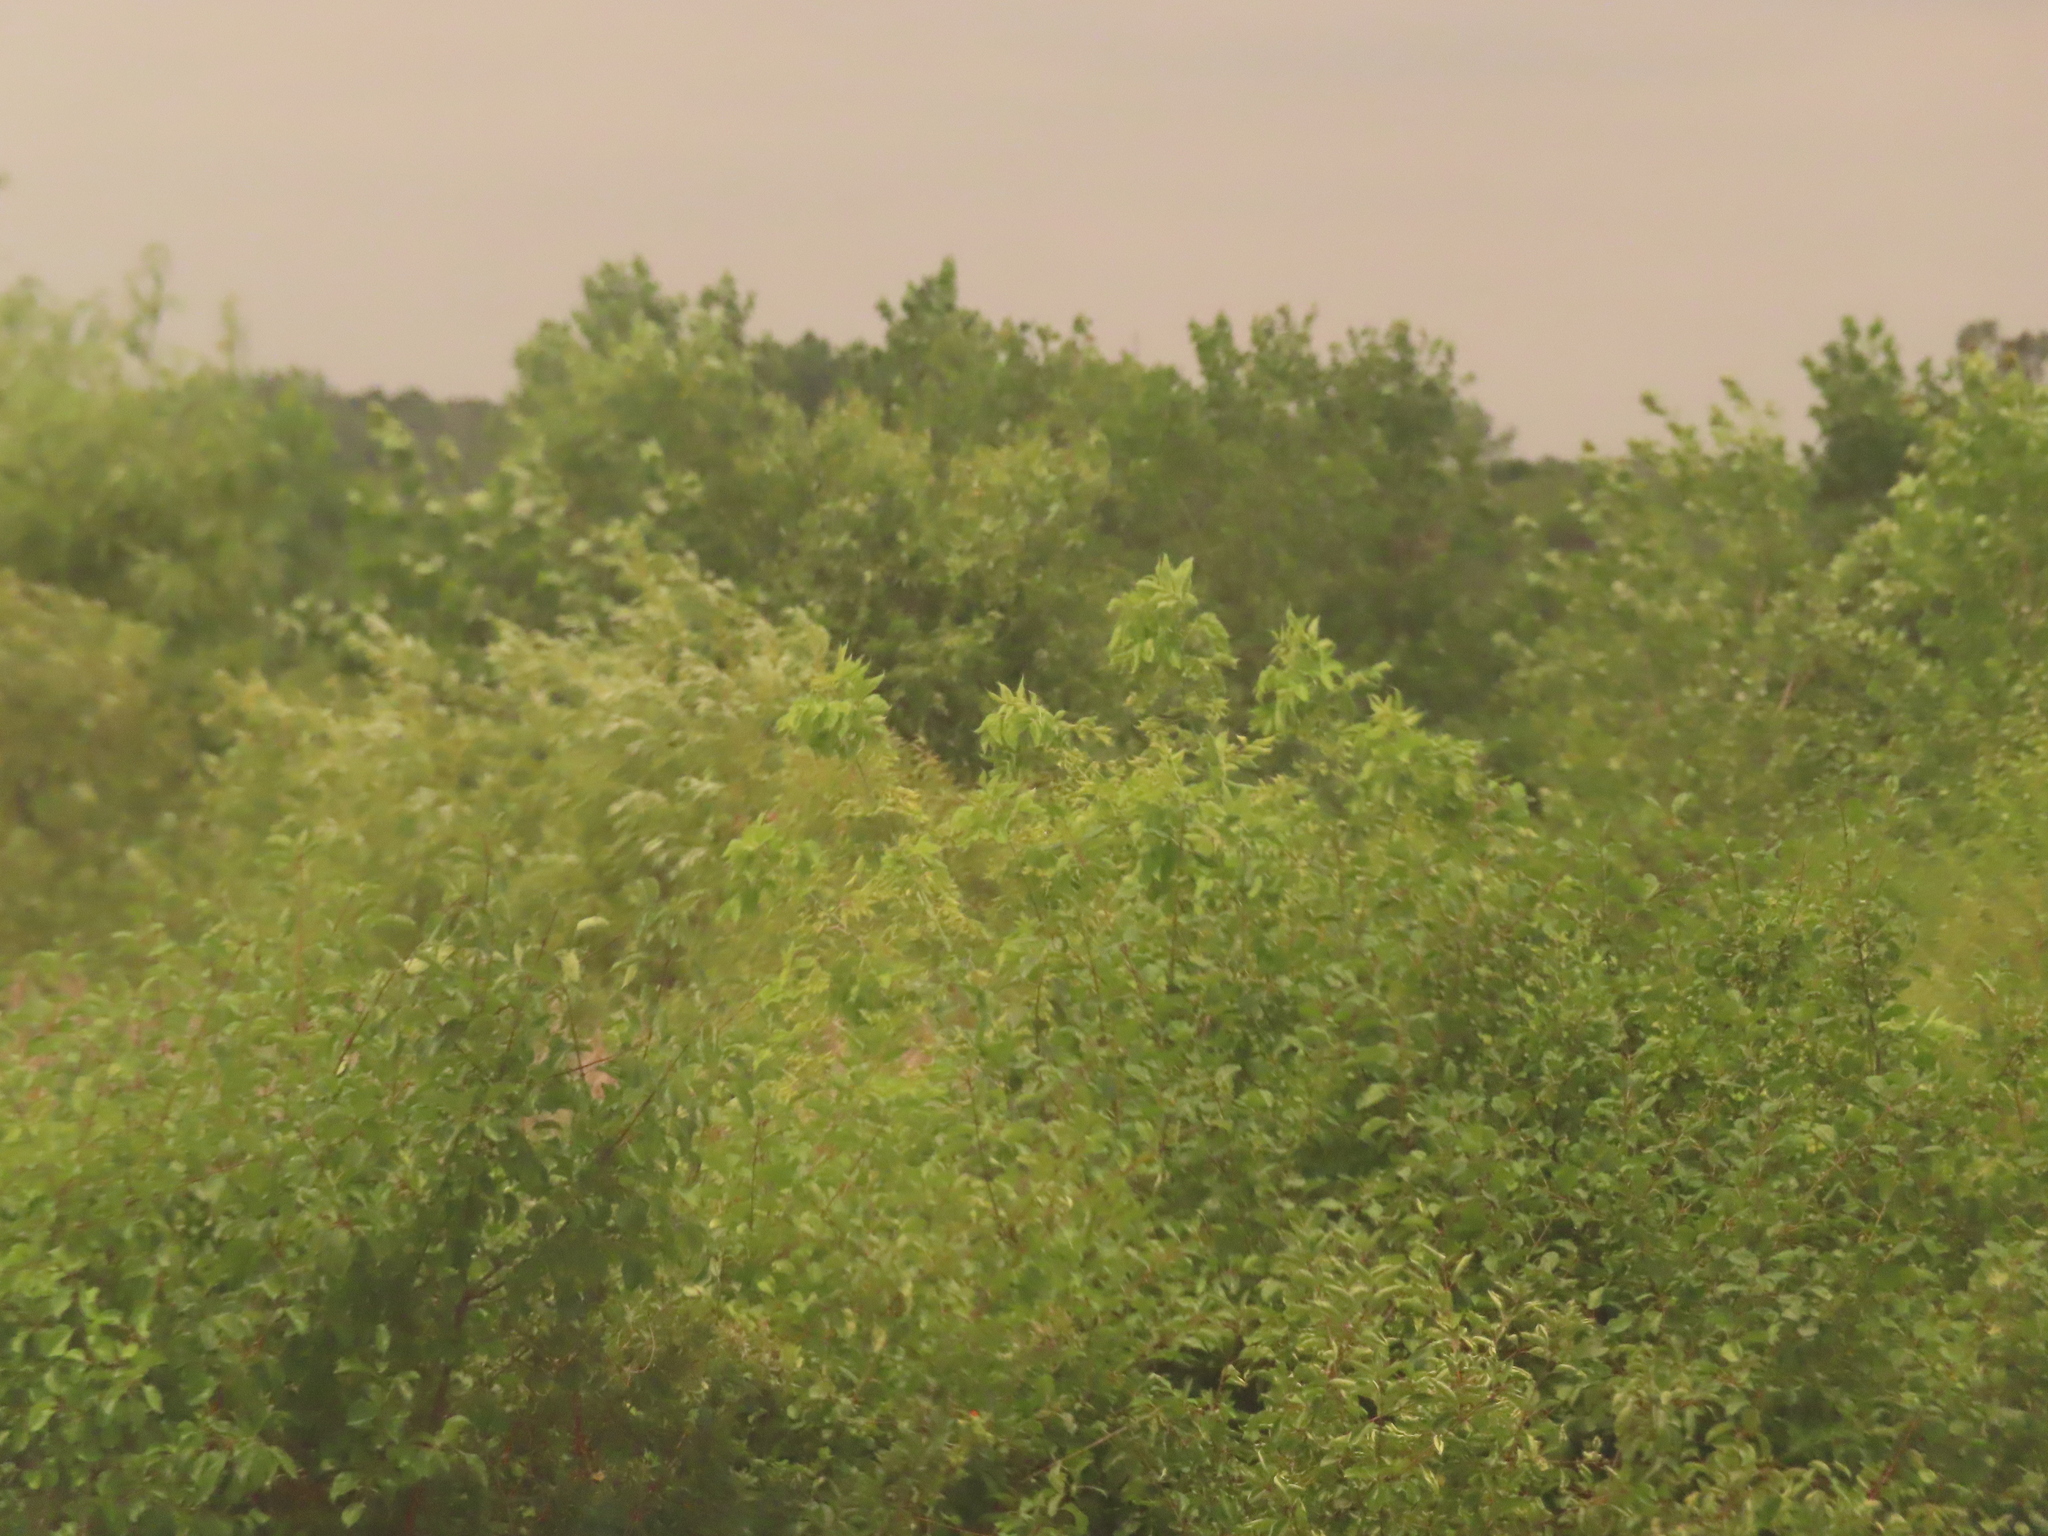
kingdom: Plantae
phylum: Tracheophyta
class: Magnoliopsida
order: Sapindales
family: Sapindaceae
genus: Acer
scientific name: Acer negundo
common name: Ashleaf maple
